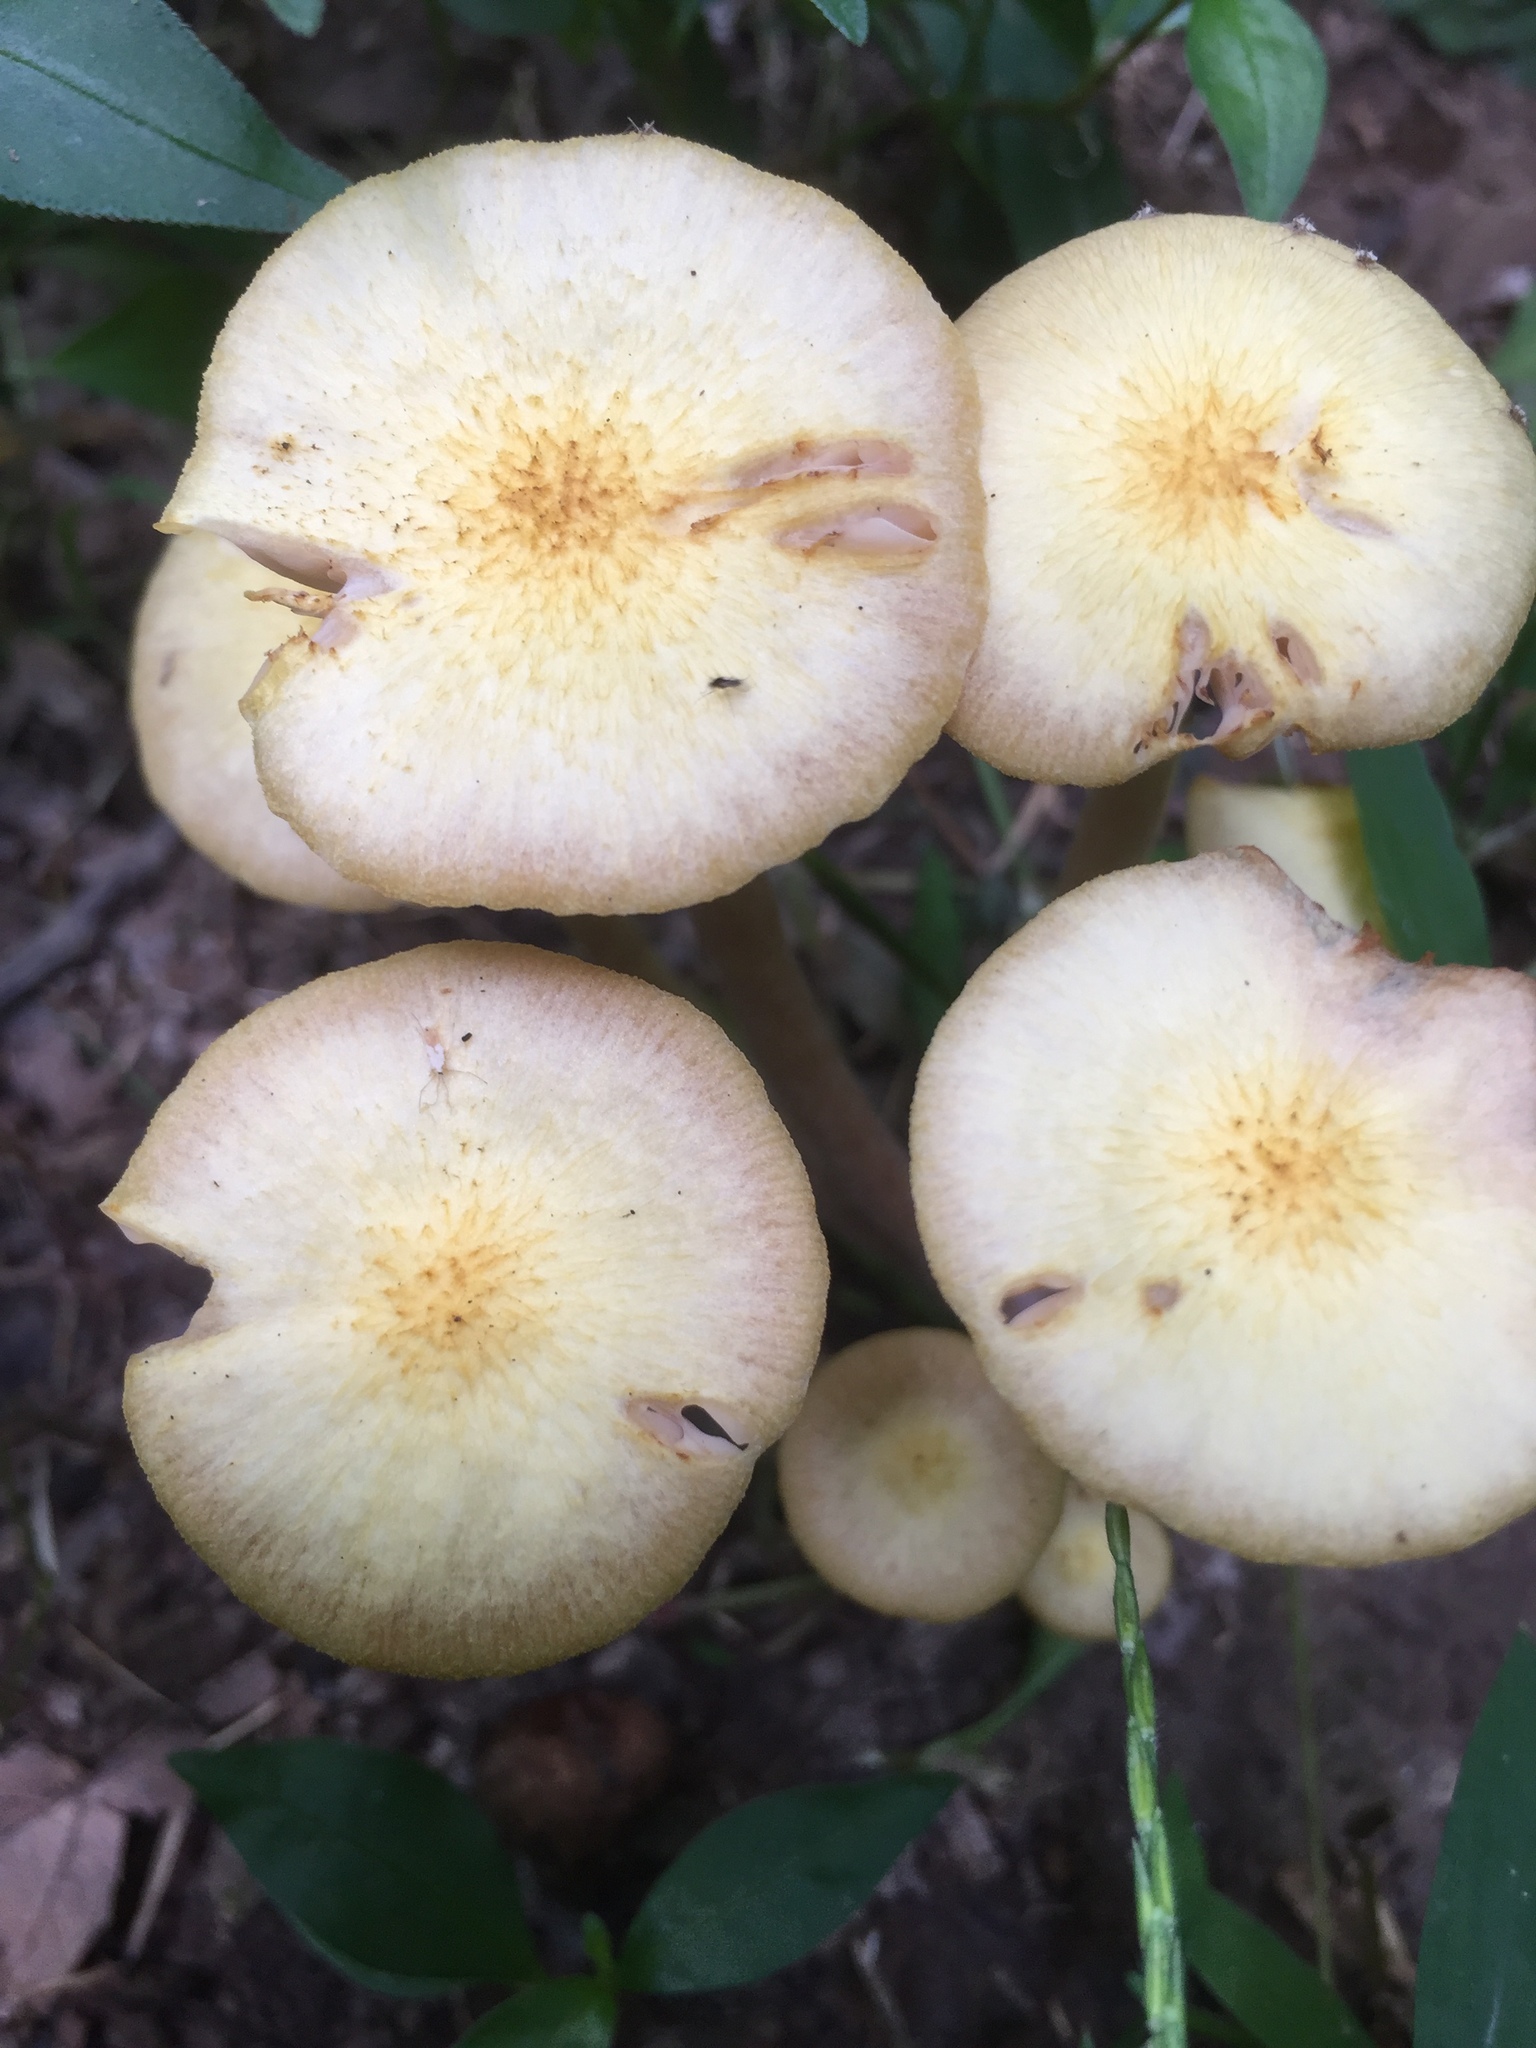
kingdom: Fungi
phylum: Basidiomycota
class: Agaricomycetes
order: Agaricales
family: Physalacriaceae
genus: Desarmillaria
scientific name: Desarmillaria caespitosa
